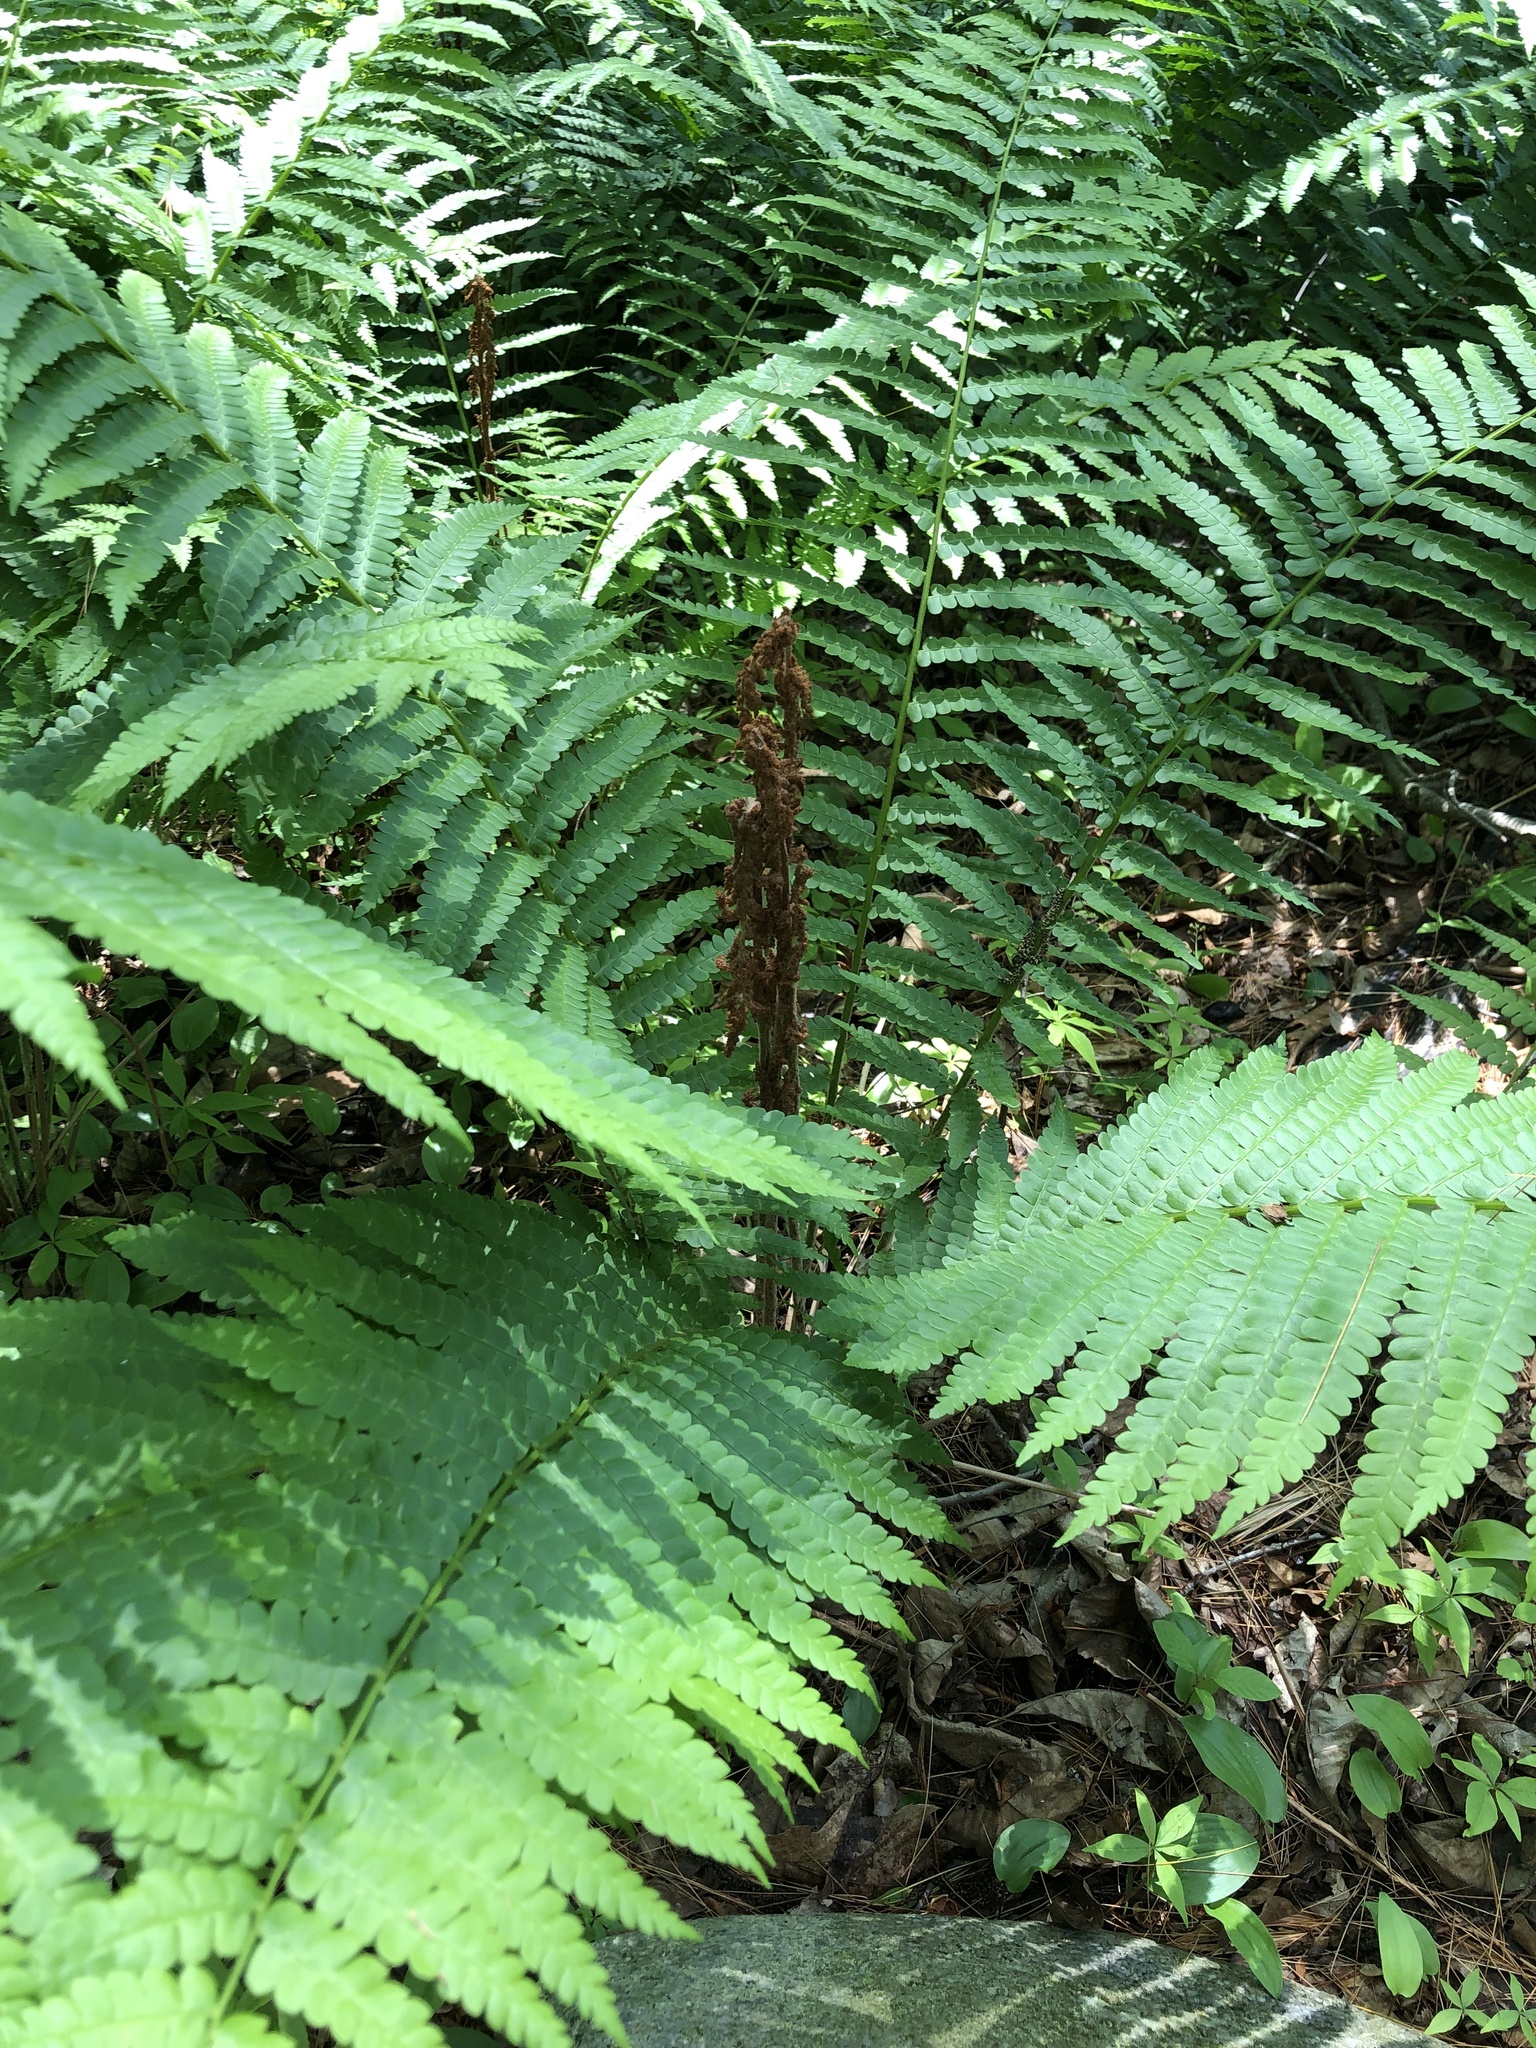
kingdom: Plantae
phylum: Tracheophyta
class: Polypodiopsida
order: Osmundales
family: Osmundaceae
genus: Osmundastrum
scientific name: Osmundastrum cinnamomeum
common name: Cinnamon fern
